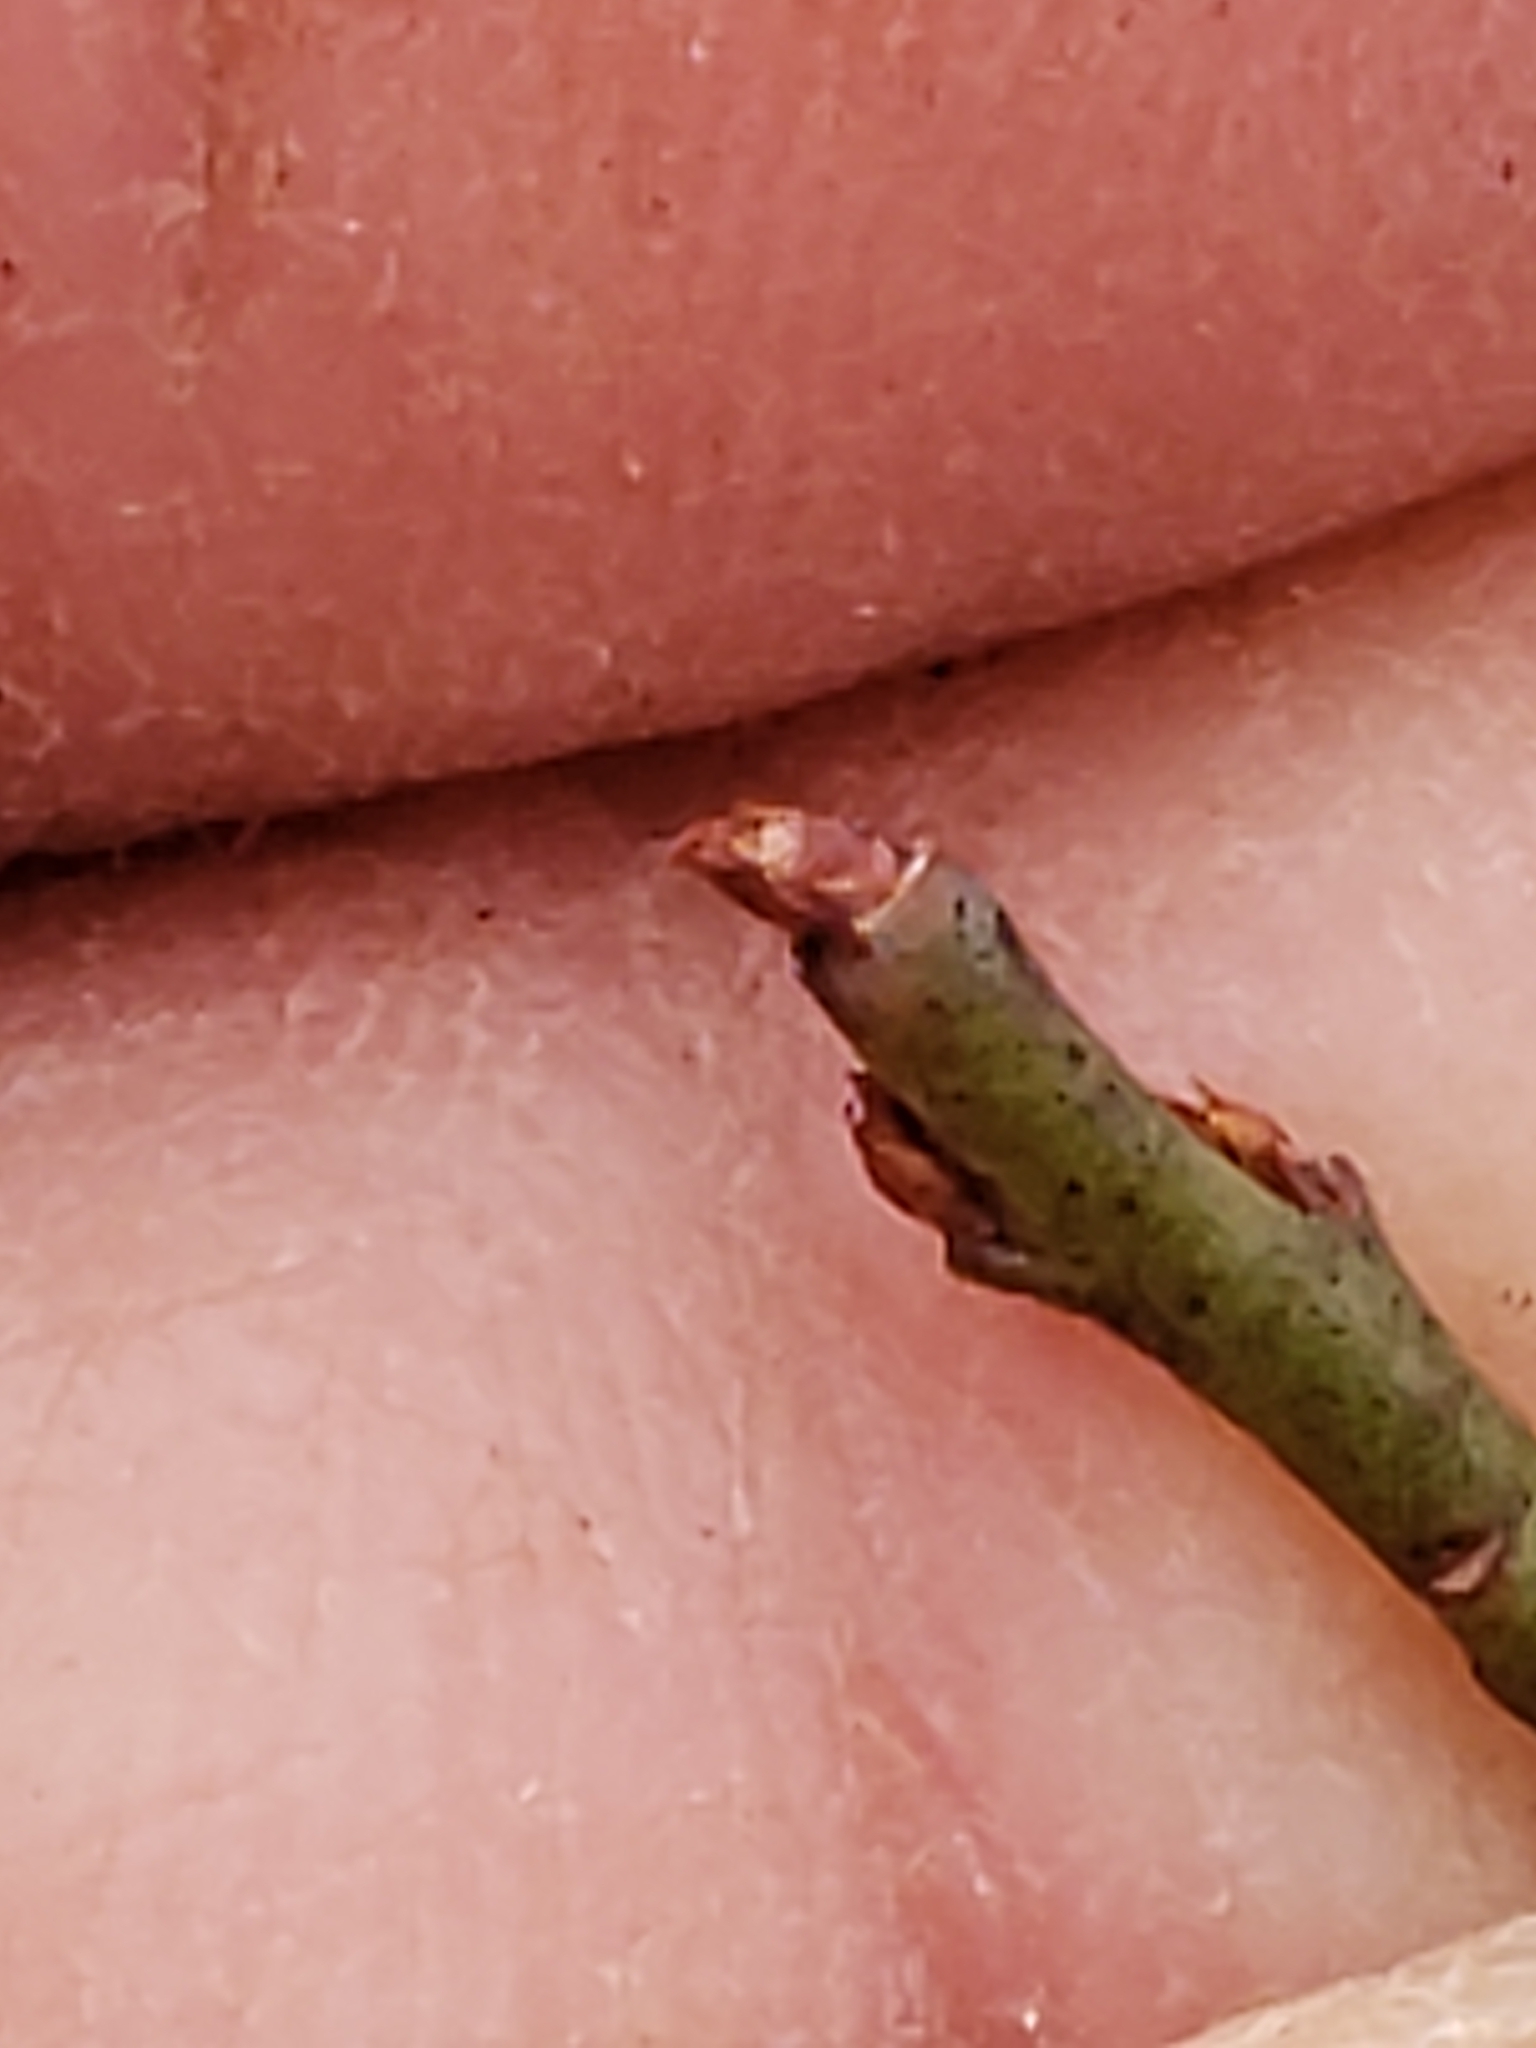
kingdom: Animalia
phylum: Arthropoda
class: Insecta
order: Hymenoptera
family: Pteromalidae
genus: Hemadas
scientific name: Hemadas nubilipennis
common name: Blueberry stem gall wasp
